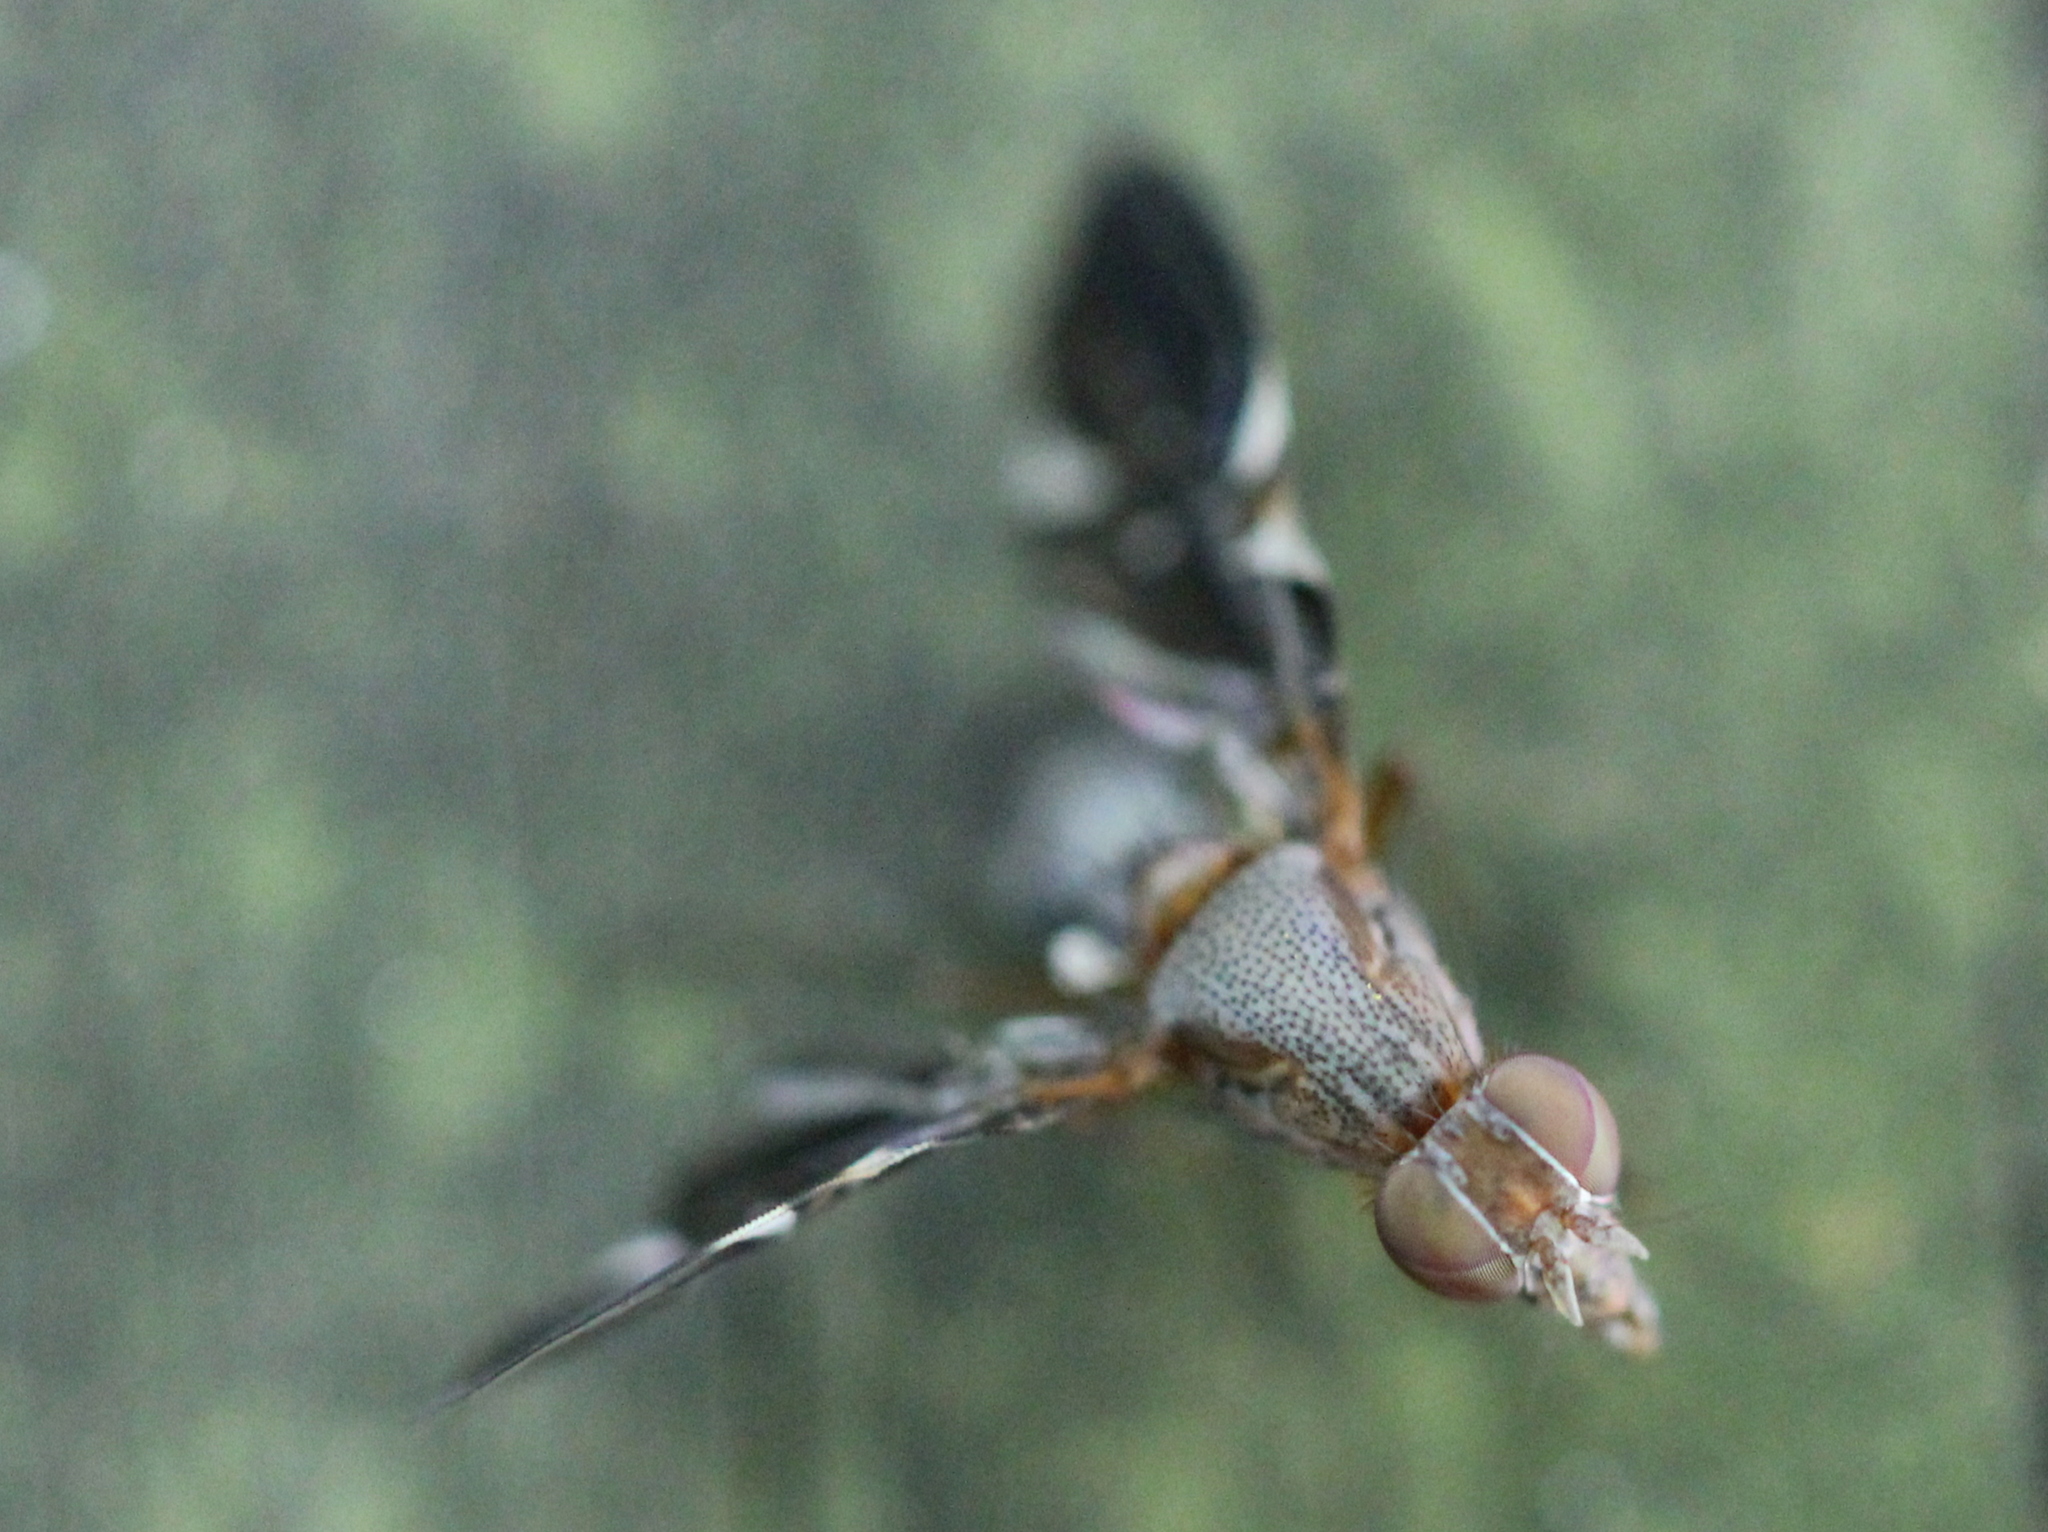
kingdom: Animalia
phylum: Arthropoda
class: Insecta
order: Diptera
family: Ulidiidae
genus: Delphinia
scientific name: Delphinia picta
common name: Common picture-winged fly
